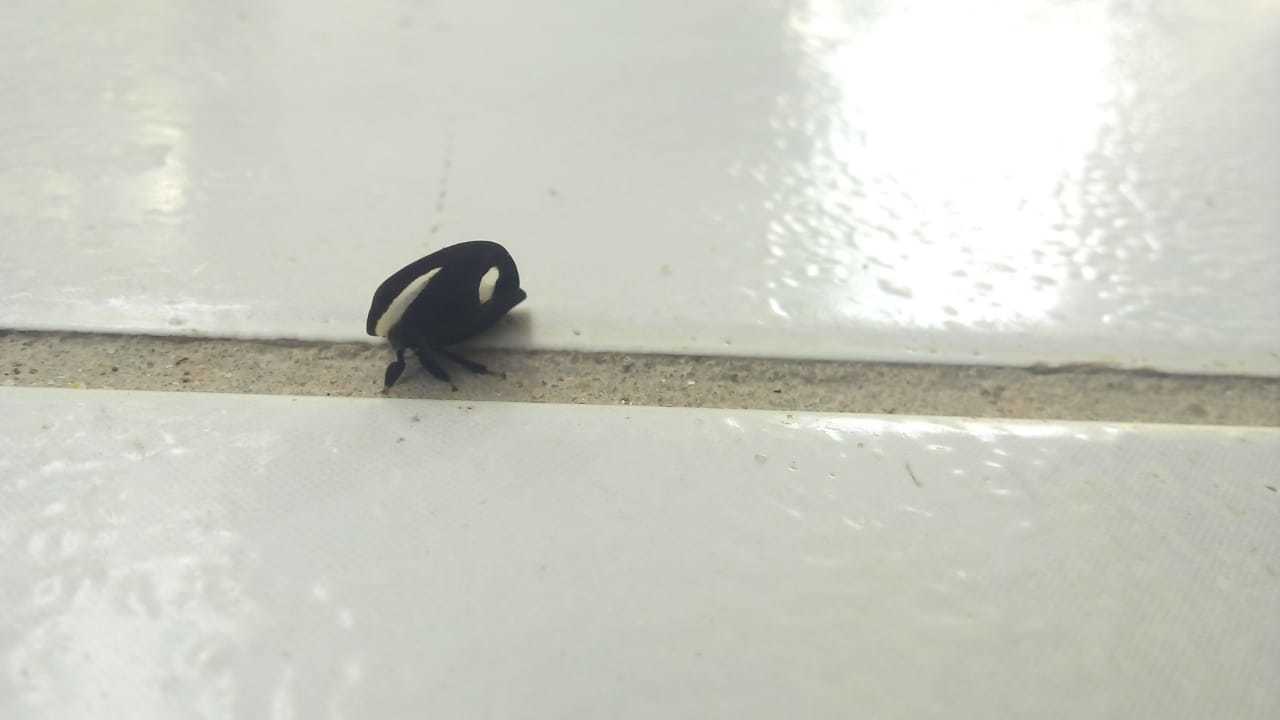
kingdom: Animalia
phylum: Arthropoda
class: Insecta
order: Hemiptera
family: Membracidae
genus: Membracis
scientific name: Membracis
